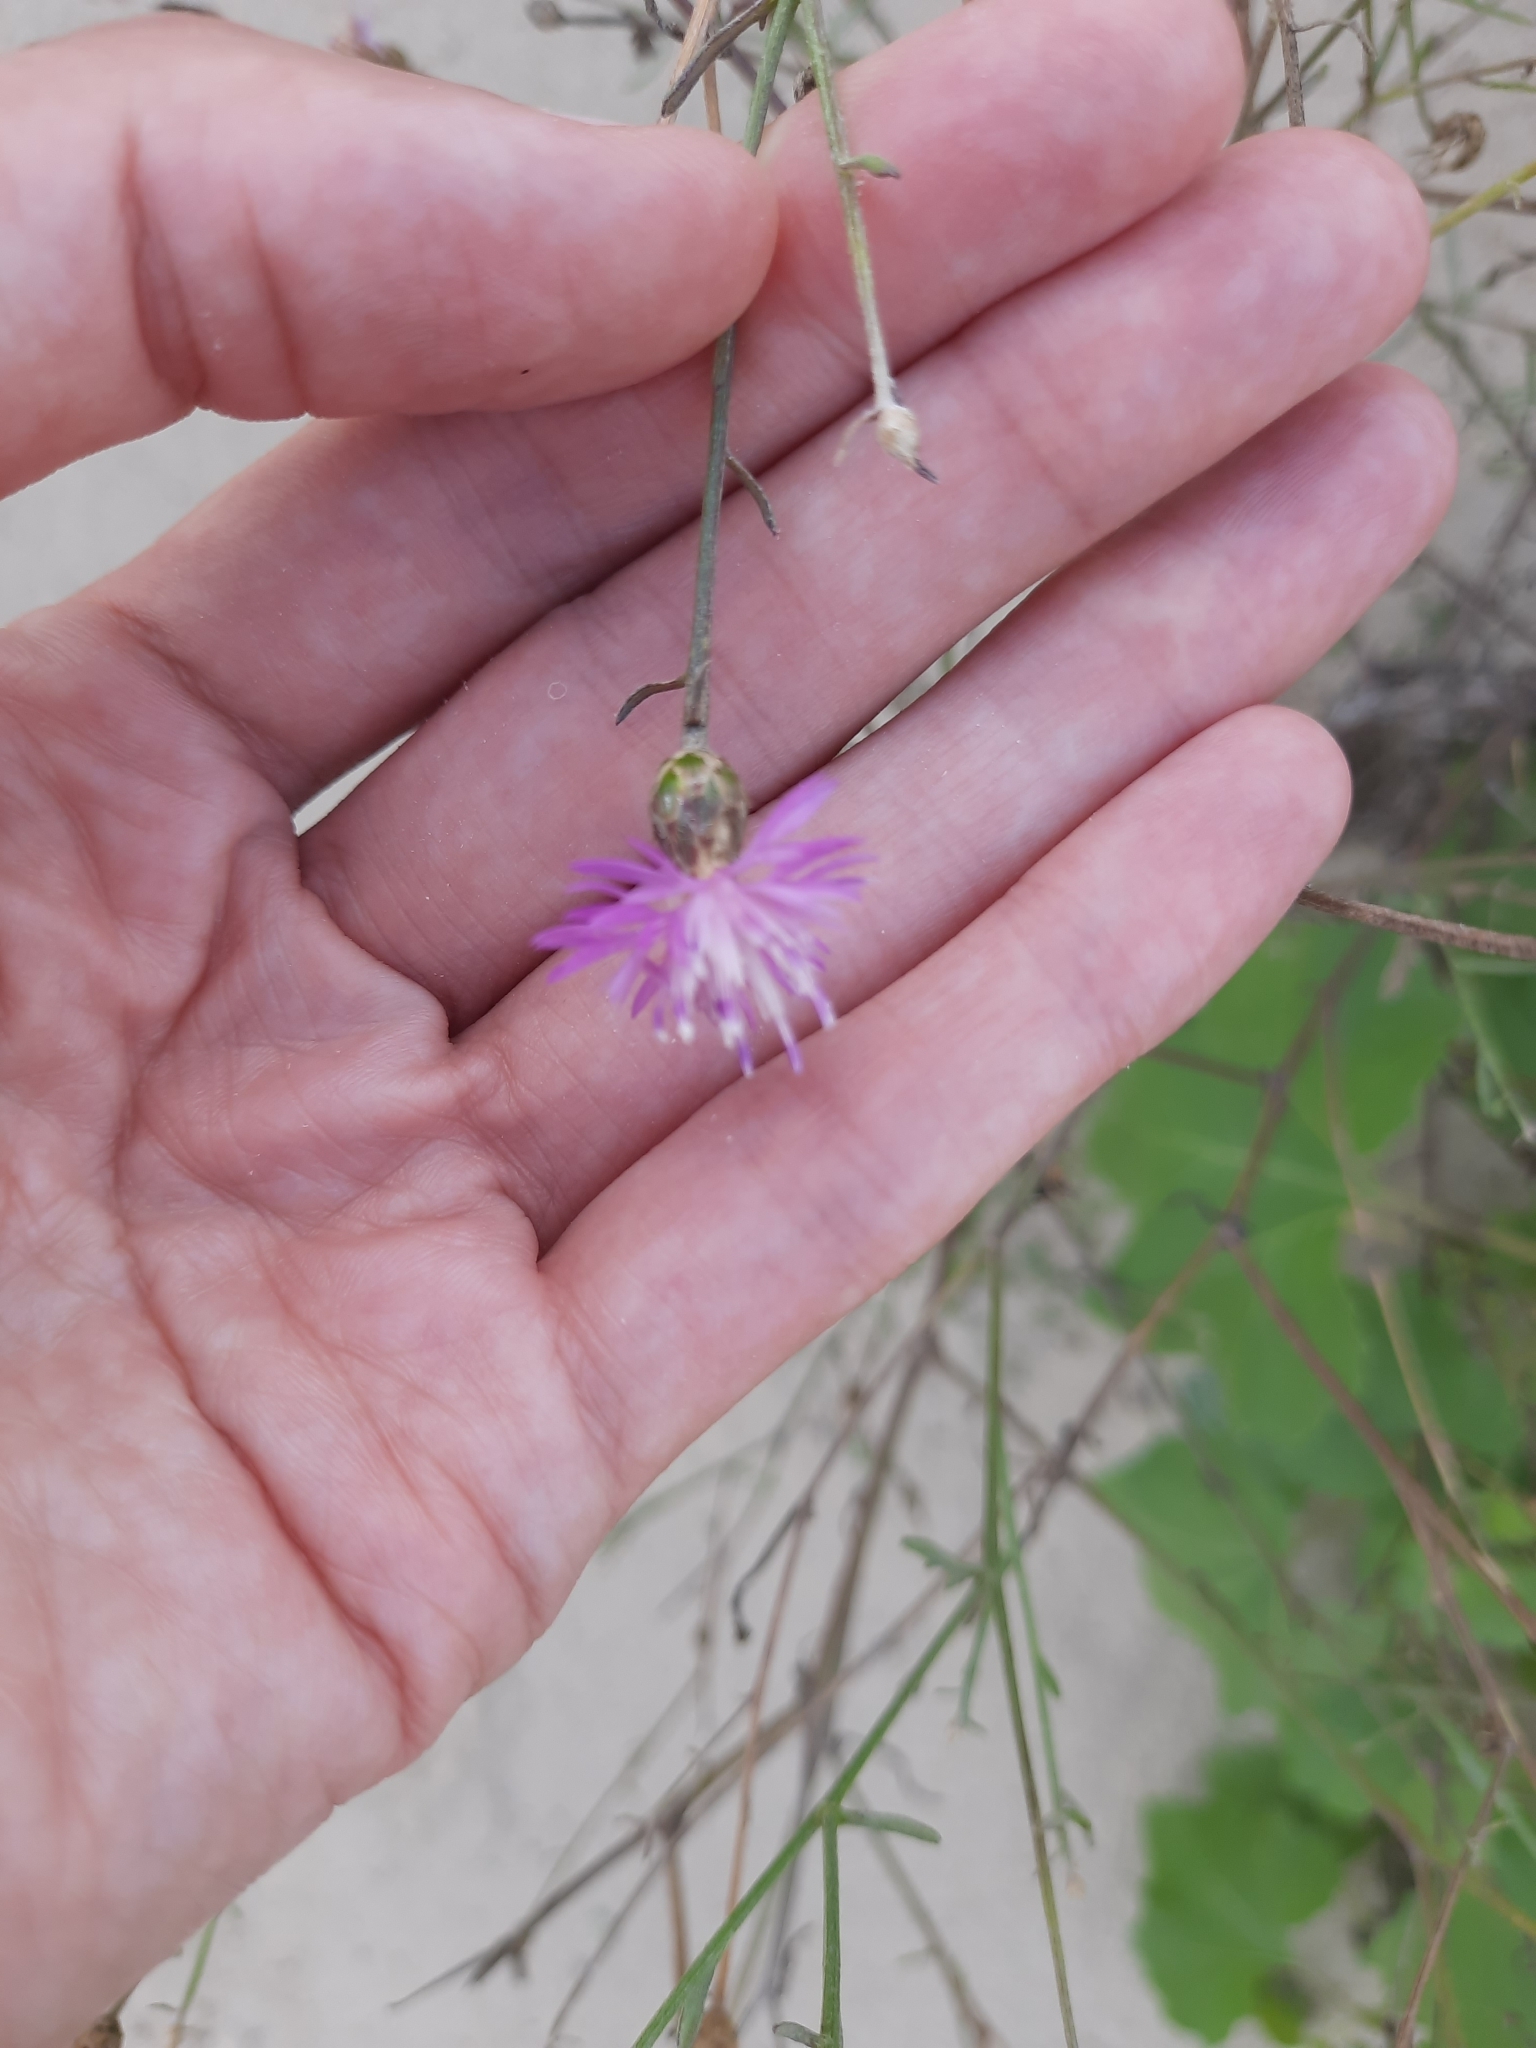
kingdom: Plantae
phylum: Tracheophyta
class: Magnoliopsida
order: Asterales
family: Asteraceae
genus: Centaurea
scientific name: Centaurea arenaria
